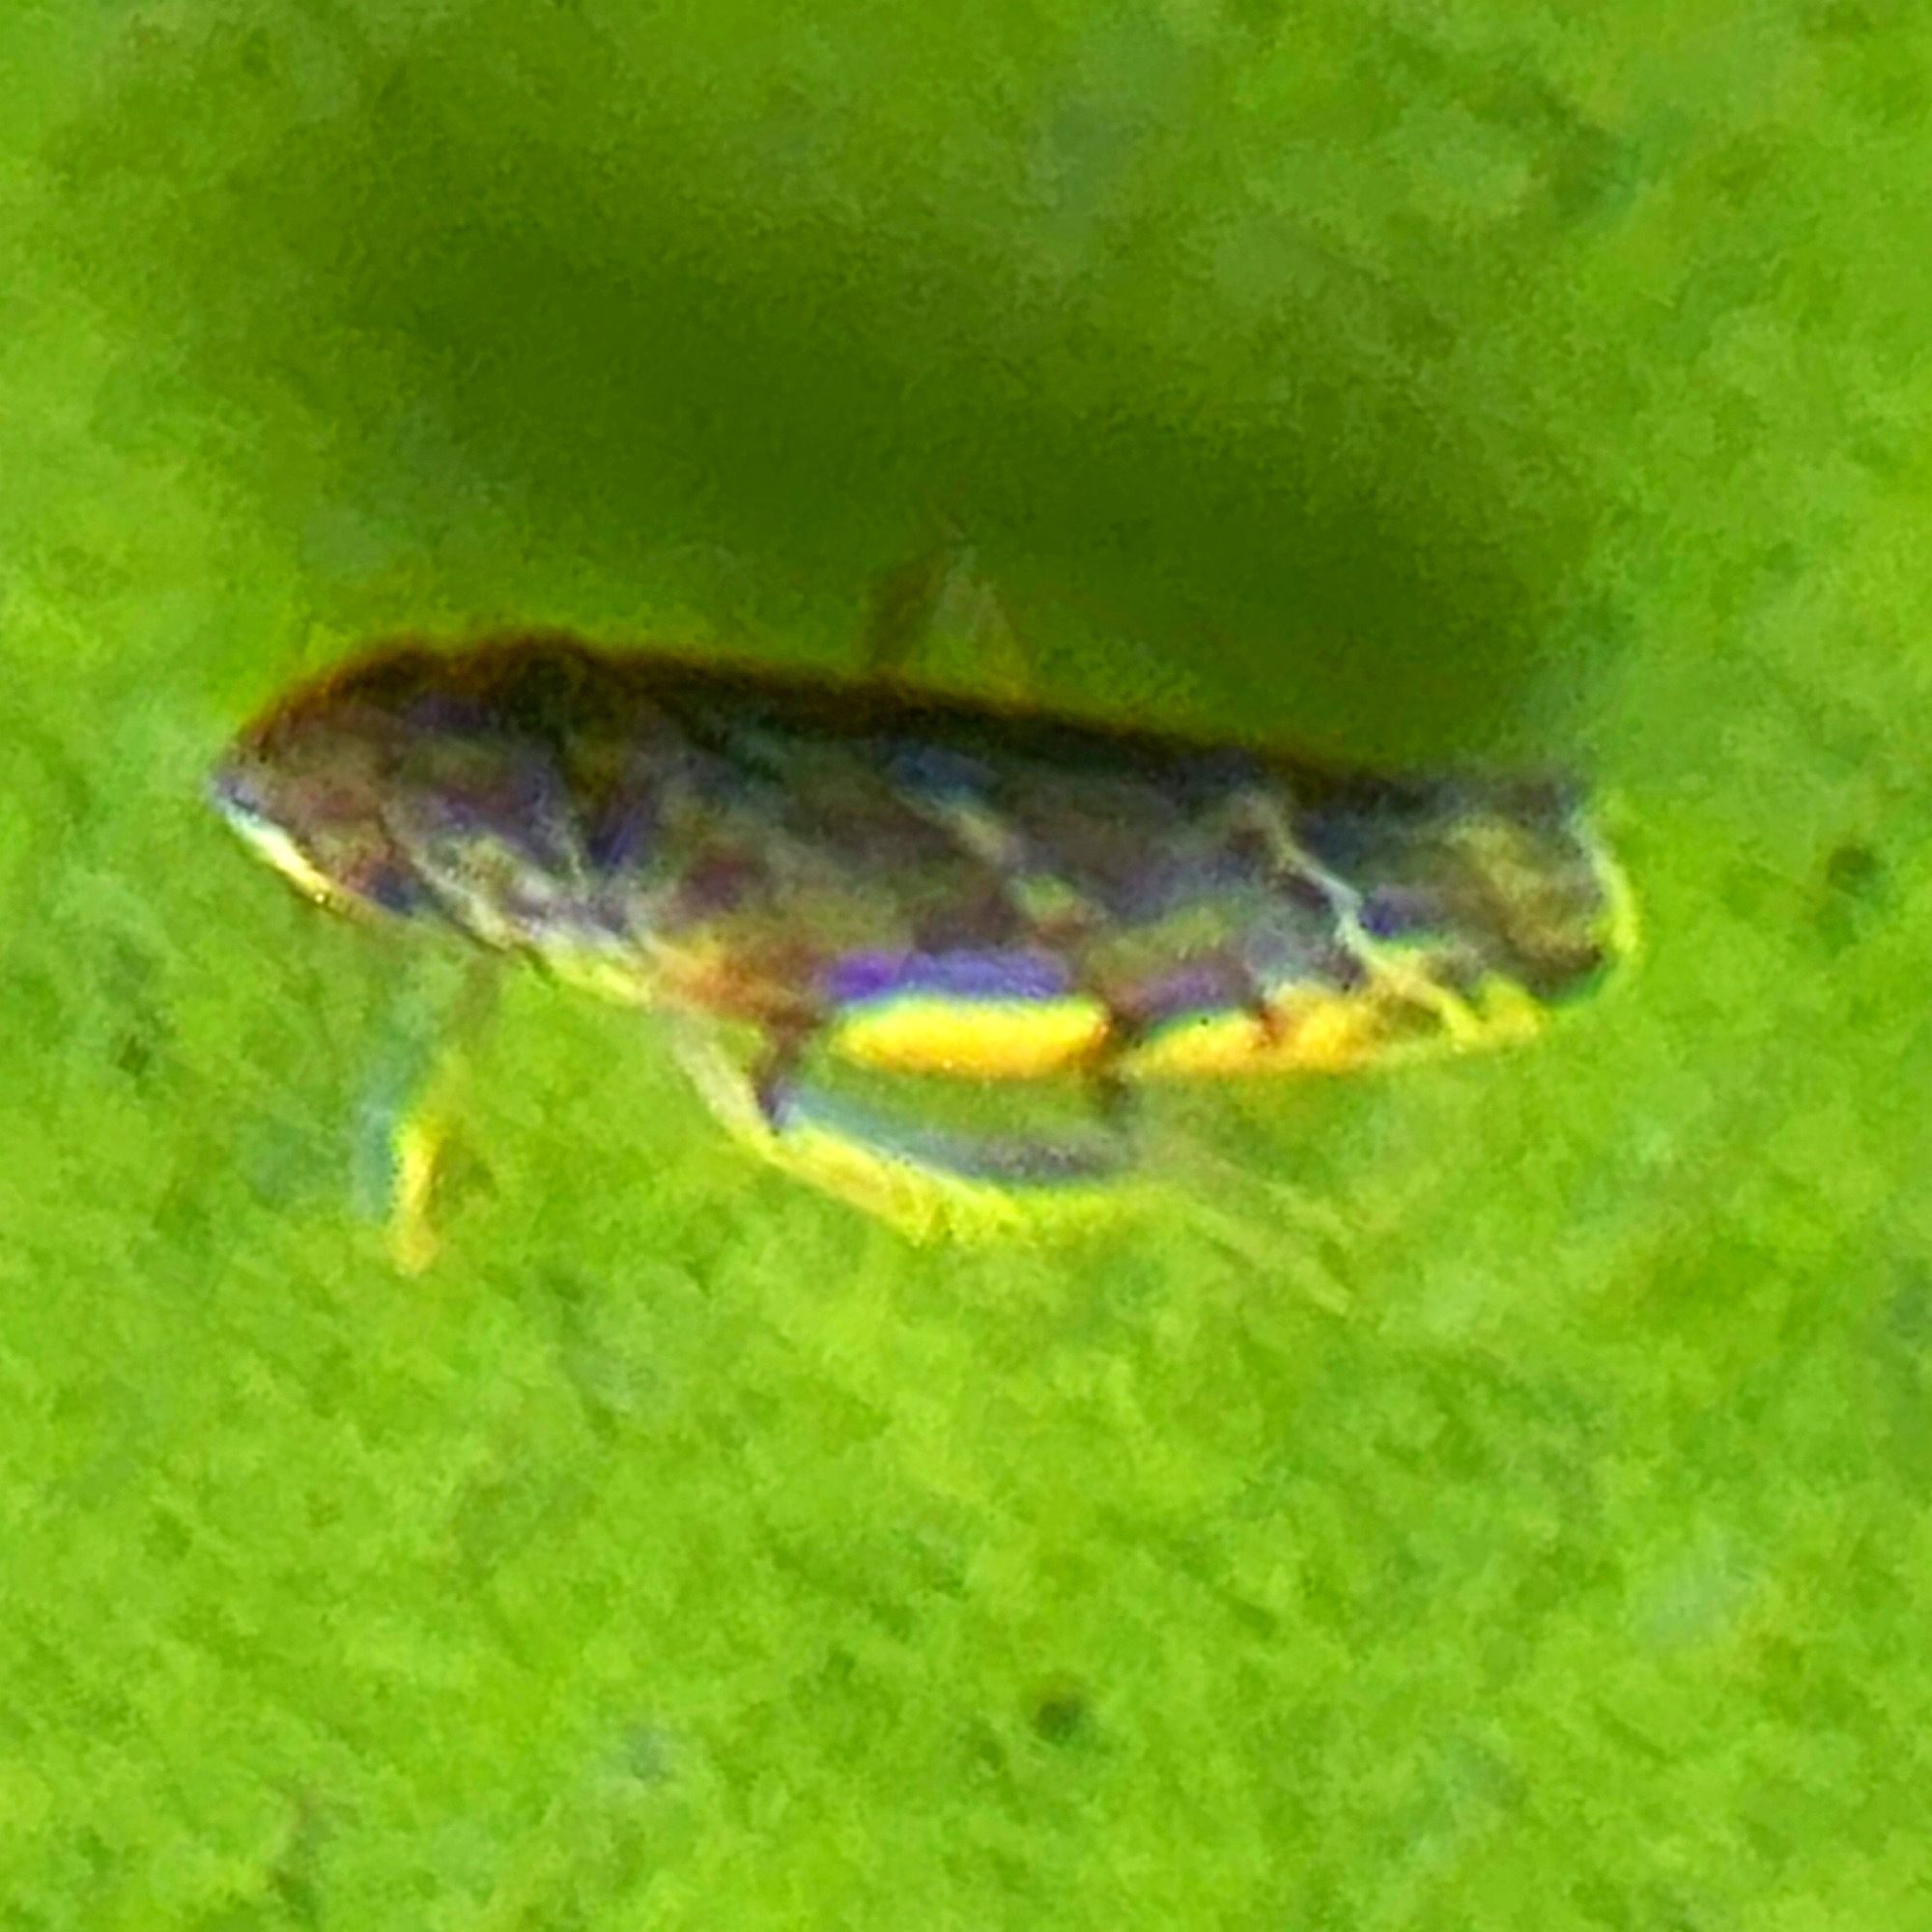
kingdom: Animalia
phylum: Arthropoda
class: Insecta
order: Hemiptera
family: Cicadellidae
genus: Erasmoneura
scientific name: Erasmoneura vulnerata
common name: The wounded leafhopper
